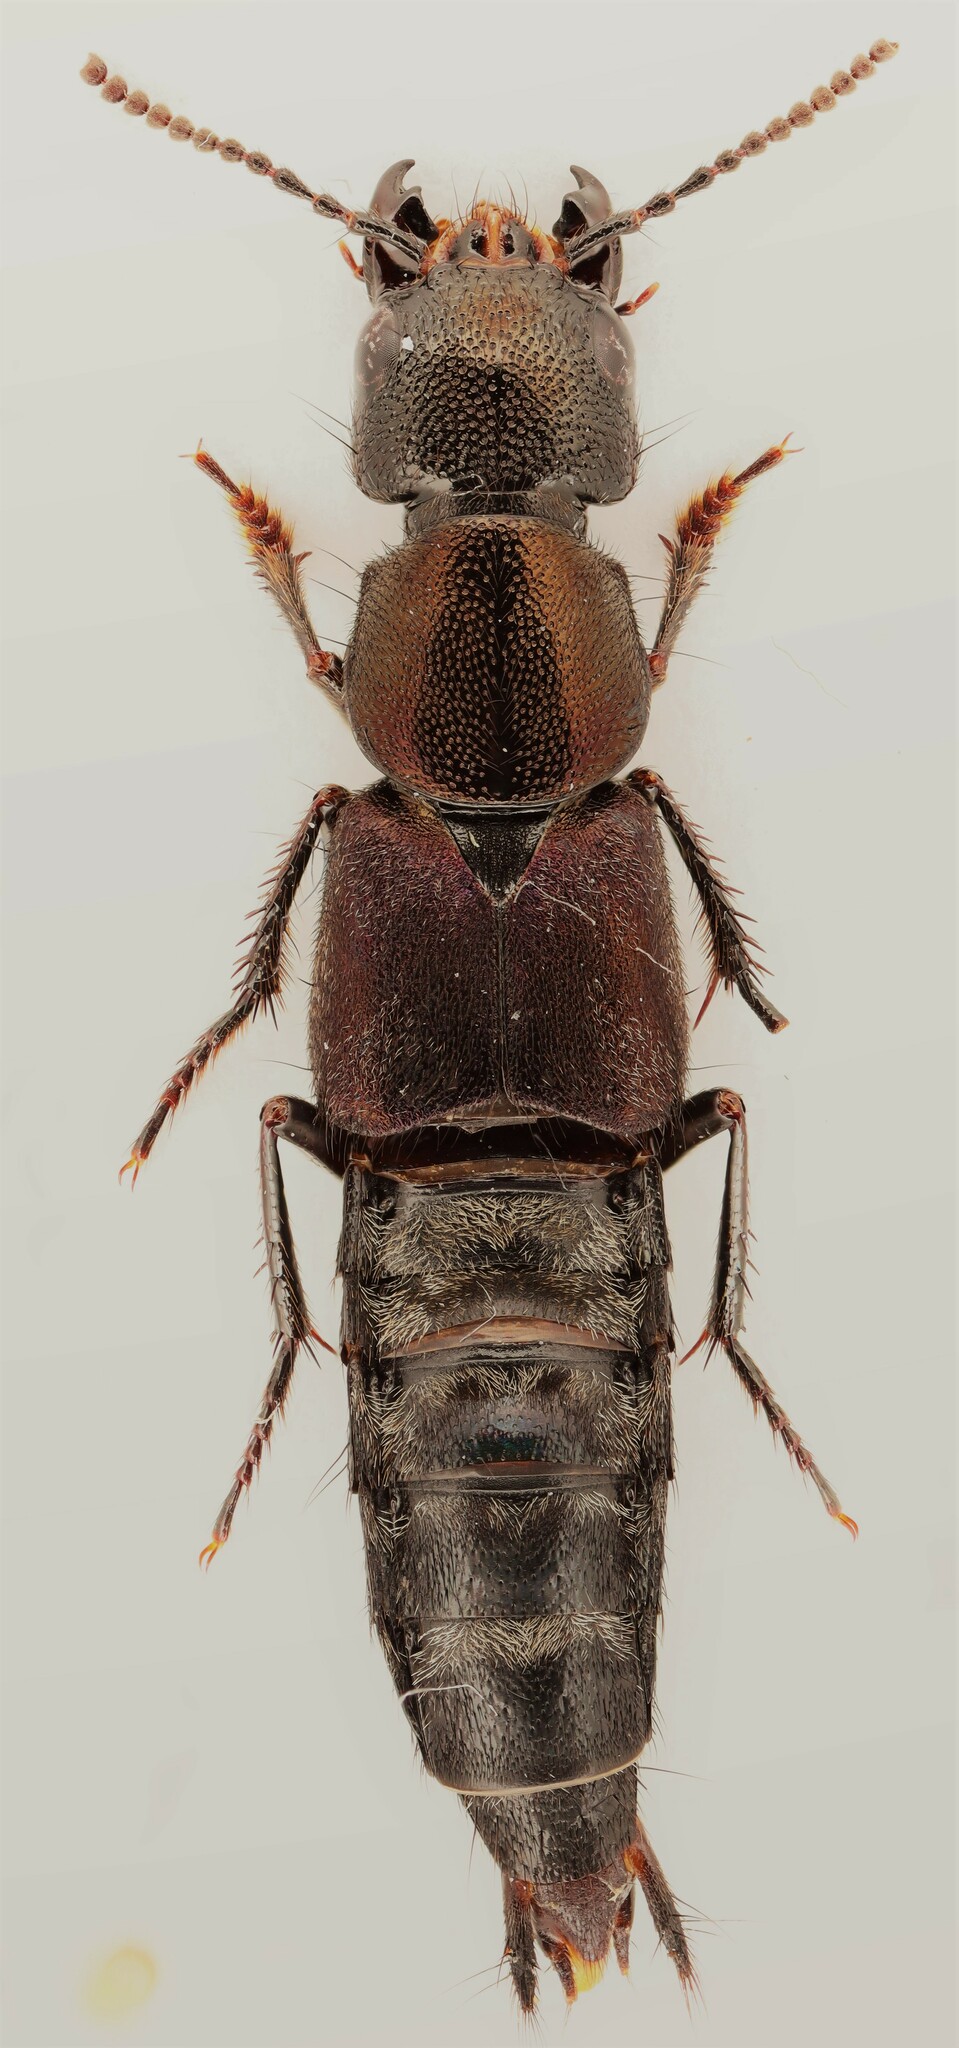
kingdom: Animalia
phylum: Arthropoda
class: Insecta
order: Coleoptera
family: Staphylinidae
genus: Platydracus
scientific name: Platydracus violaceus
